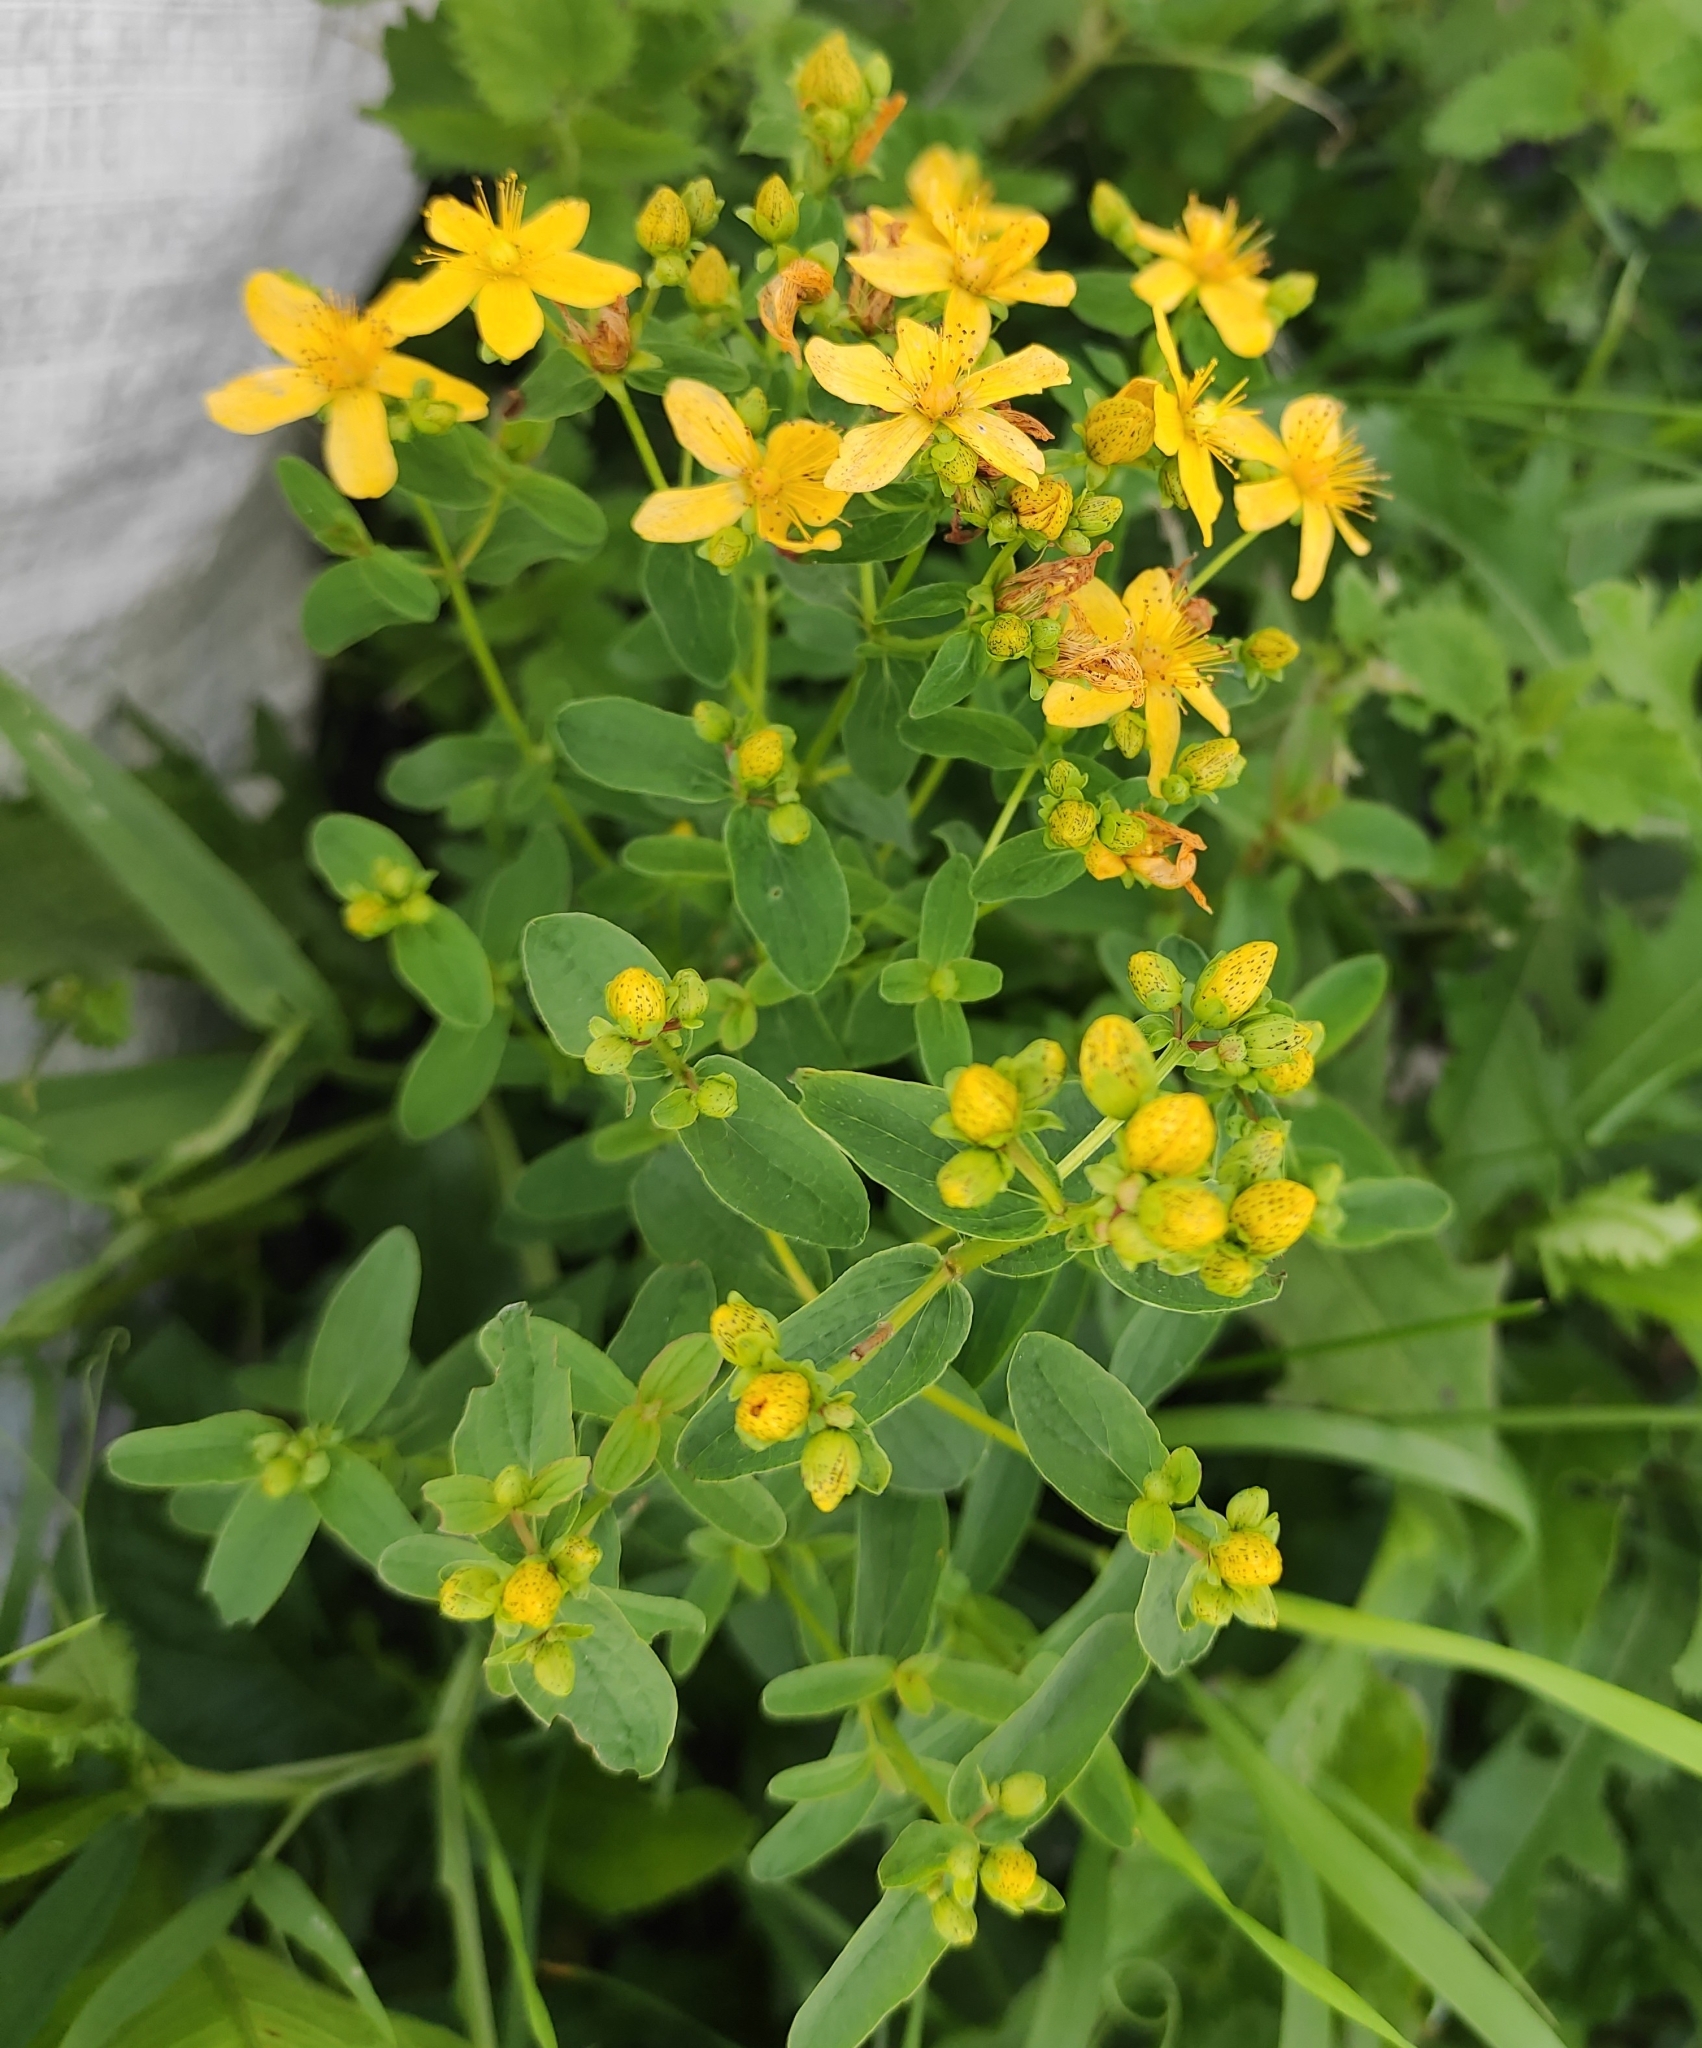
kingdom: Plantae
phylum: Tracheophyta
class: Magnoliopsida
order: Malpighiales
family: Hypericaceae
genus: Hypericum
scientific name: Hypericum maculatum
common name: Imperforate st. john's-wort
